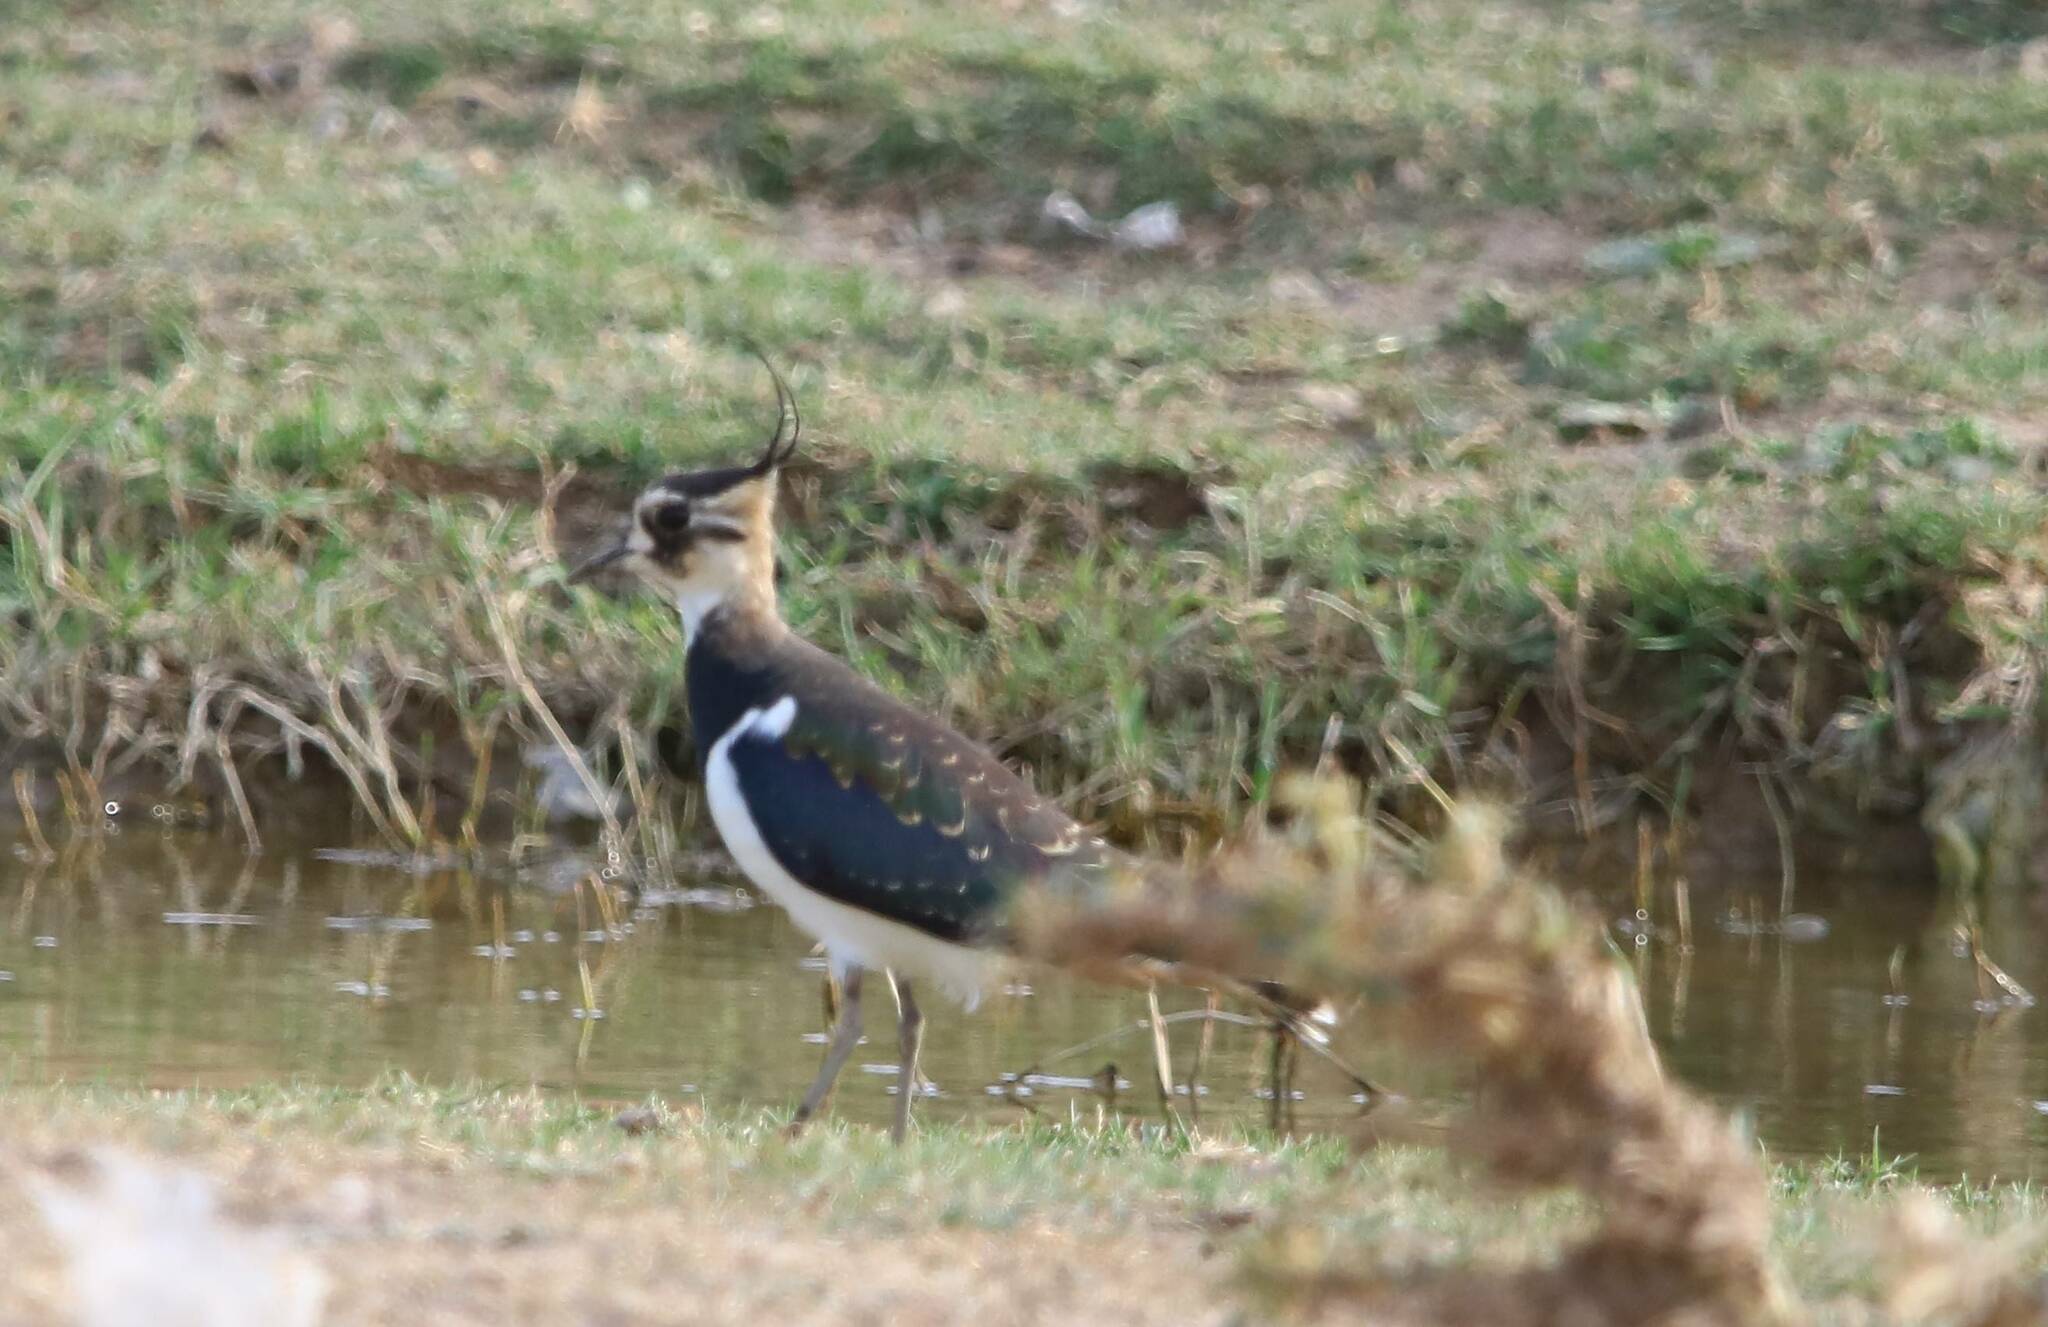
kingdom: Animalia
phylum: Chordata
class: Aves
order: Charadriiformes
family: Charadriidae
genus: Vanellus
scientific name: Vanellus vanellus
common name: Northern lapwing
